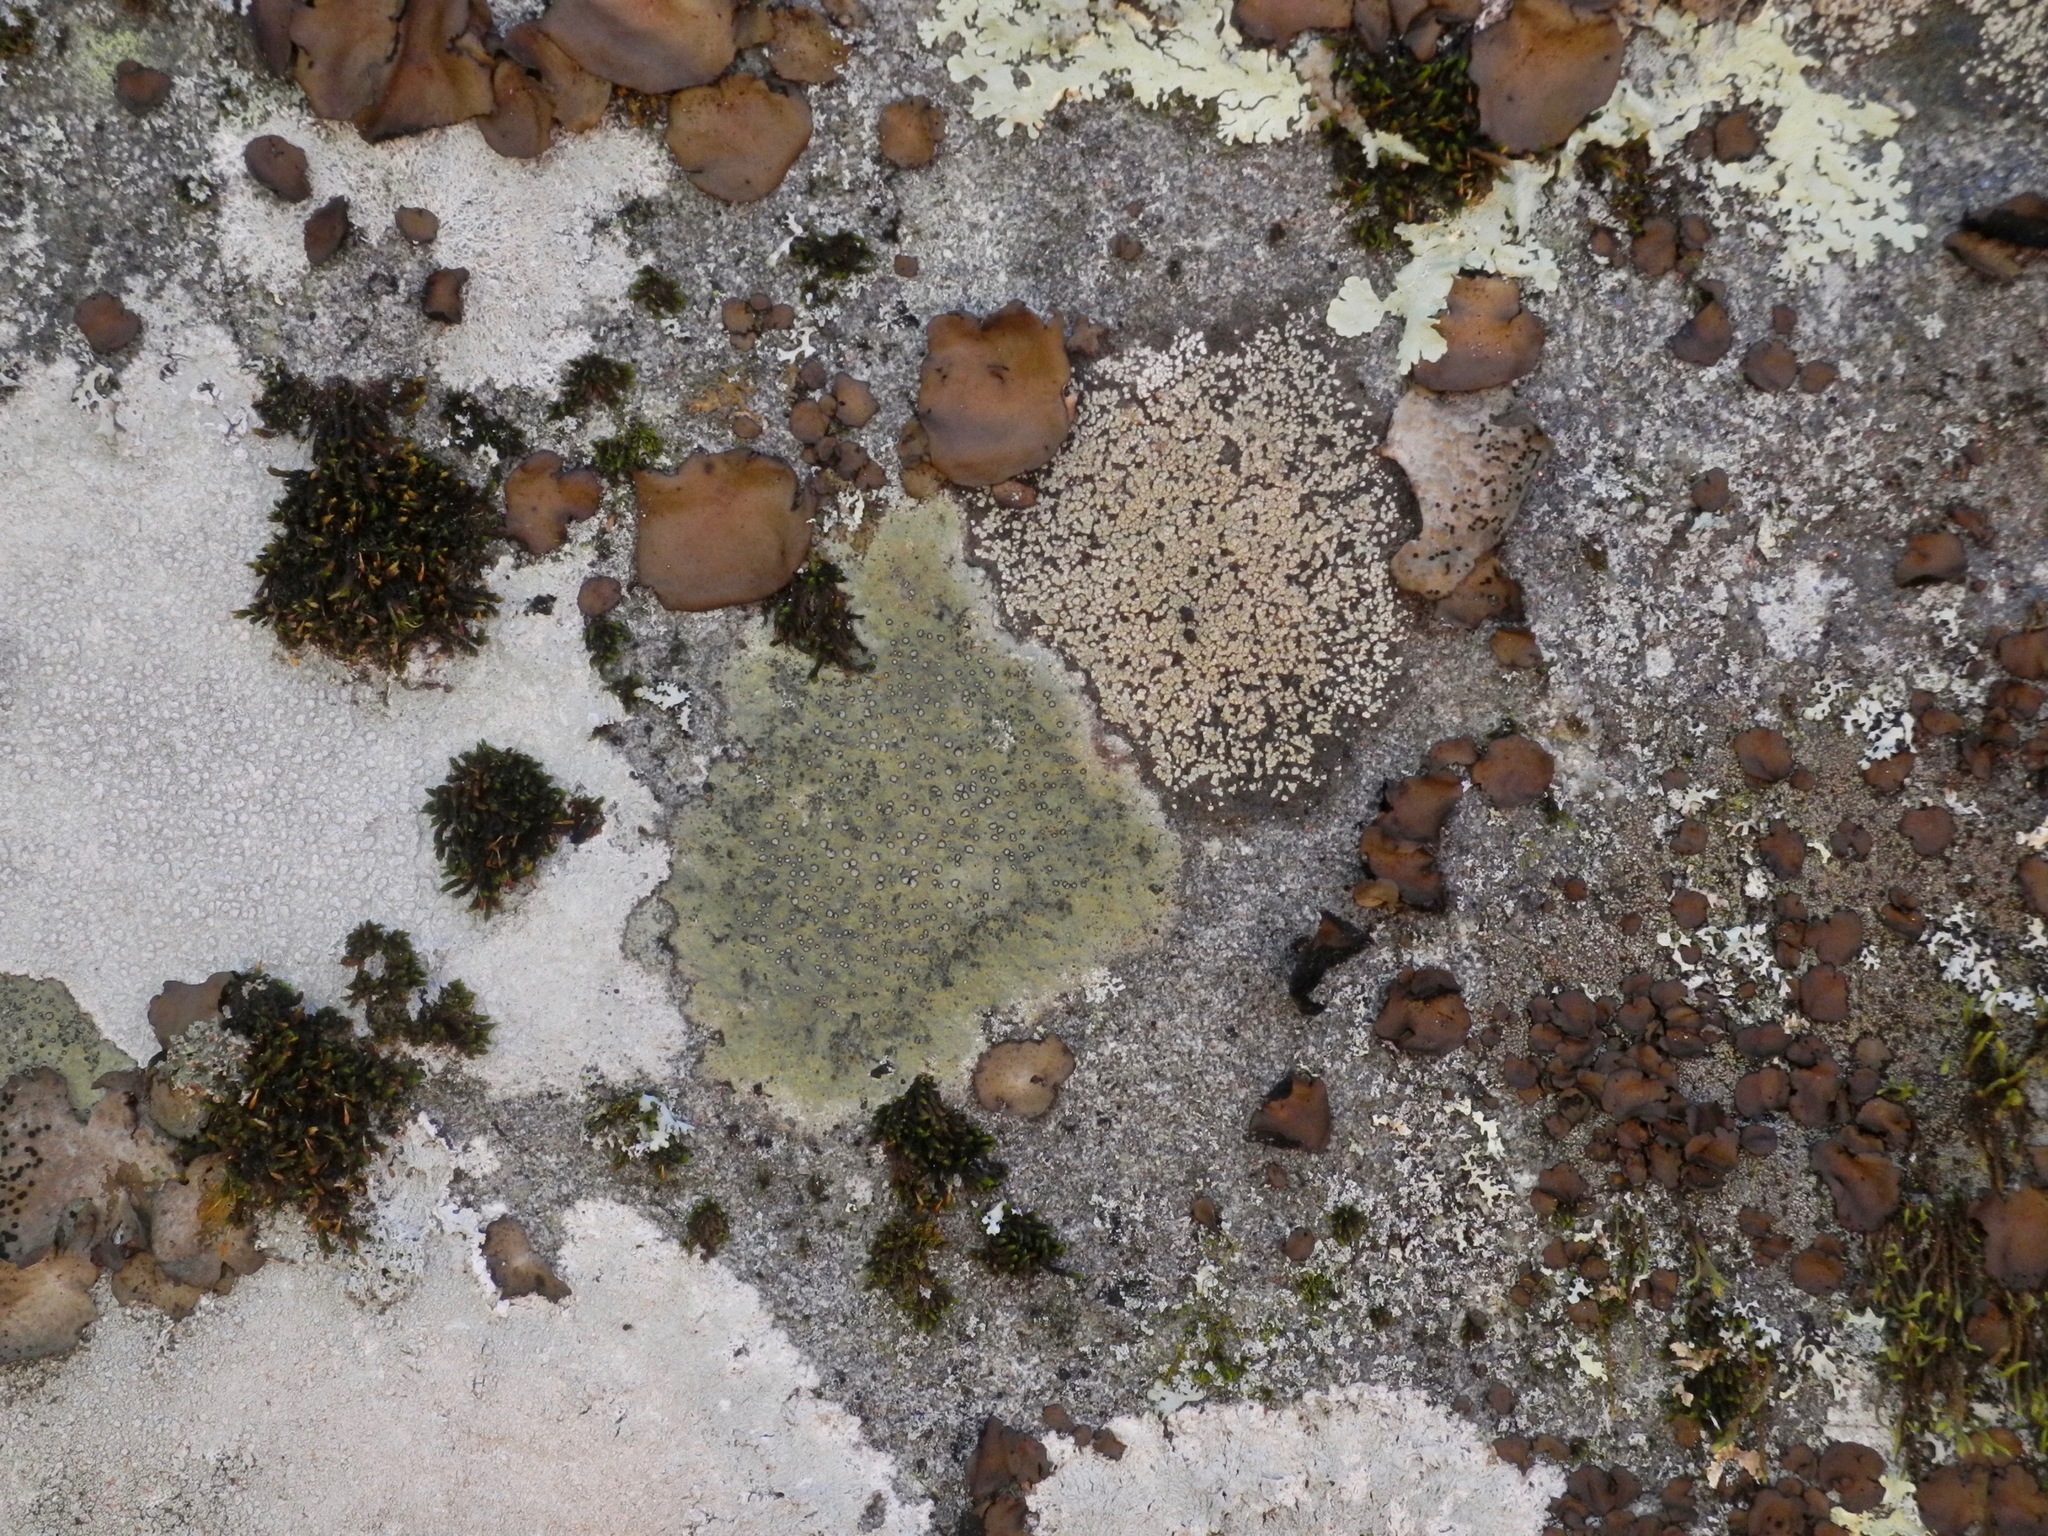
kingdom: Fungi
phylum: Ascomycota
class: Lecanoromycetes
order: Lecideales
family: Lecideaceae
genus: Porpidia
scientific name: Porpidia albocaerulescens
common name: Smokey-eyed boulder lichen
